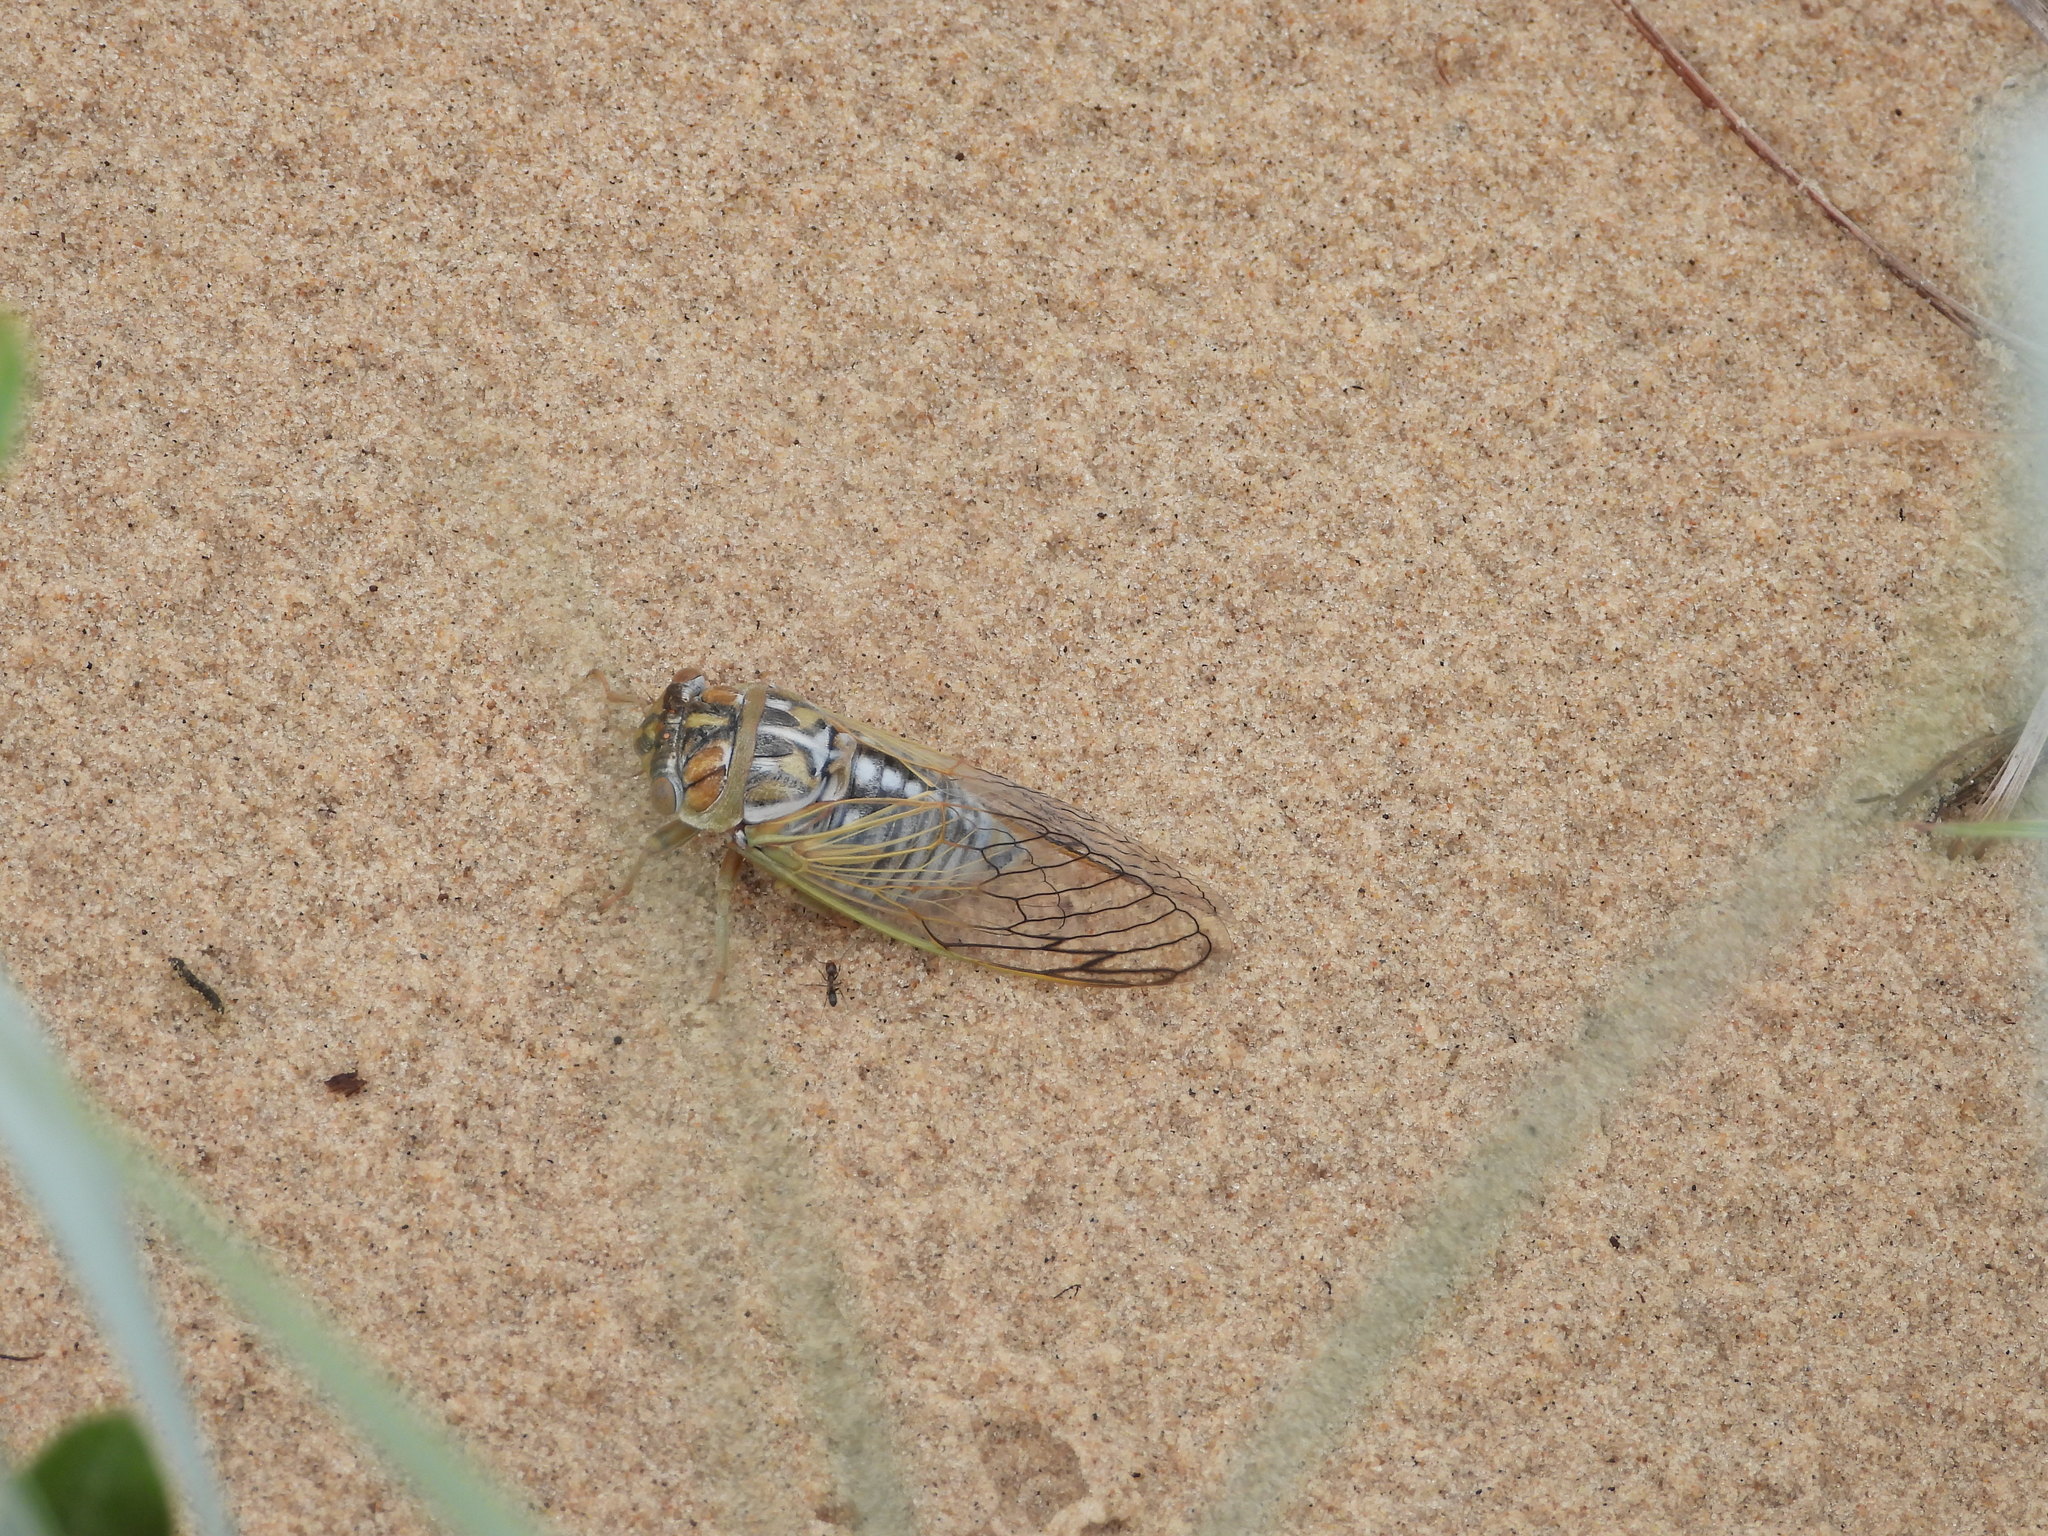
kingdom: Animalia
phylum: Arthropoda
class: Insecta
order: Hemiptera
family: Cicadidae
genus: Megatibicen
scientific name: Megatibicen harenosus
